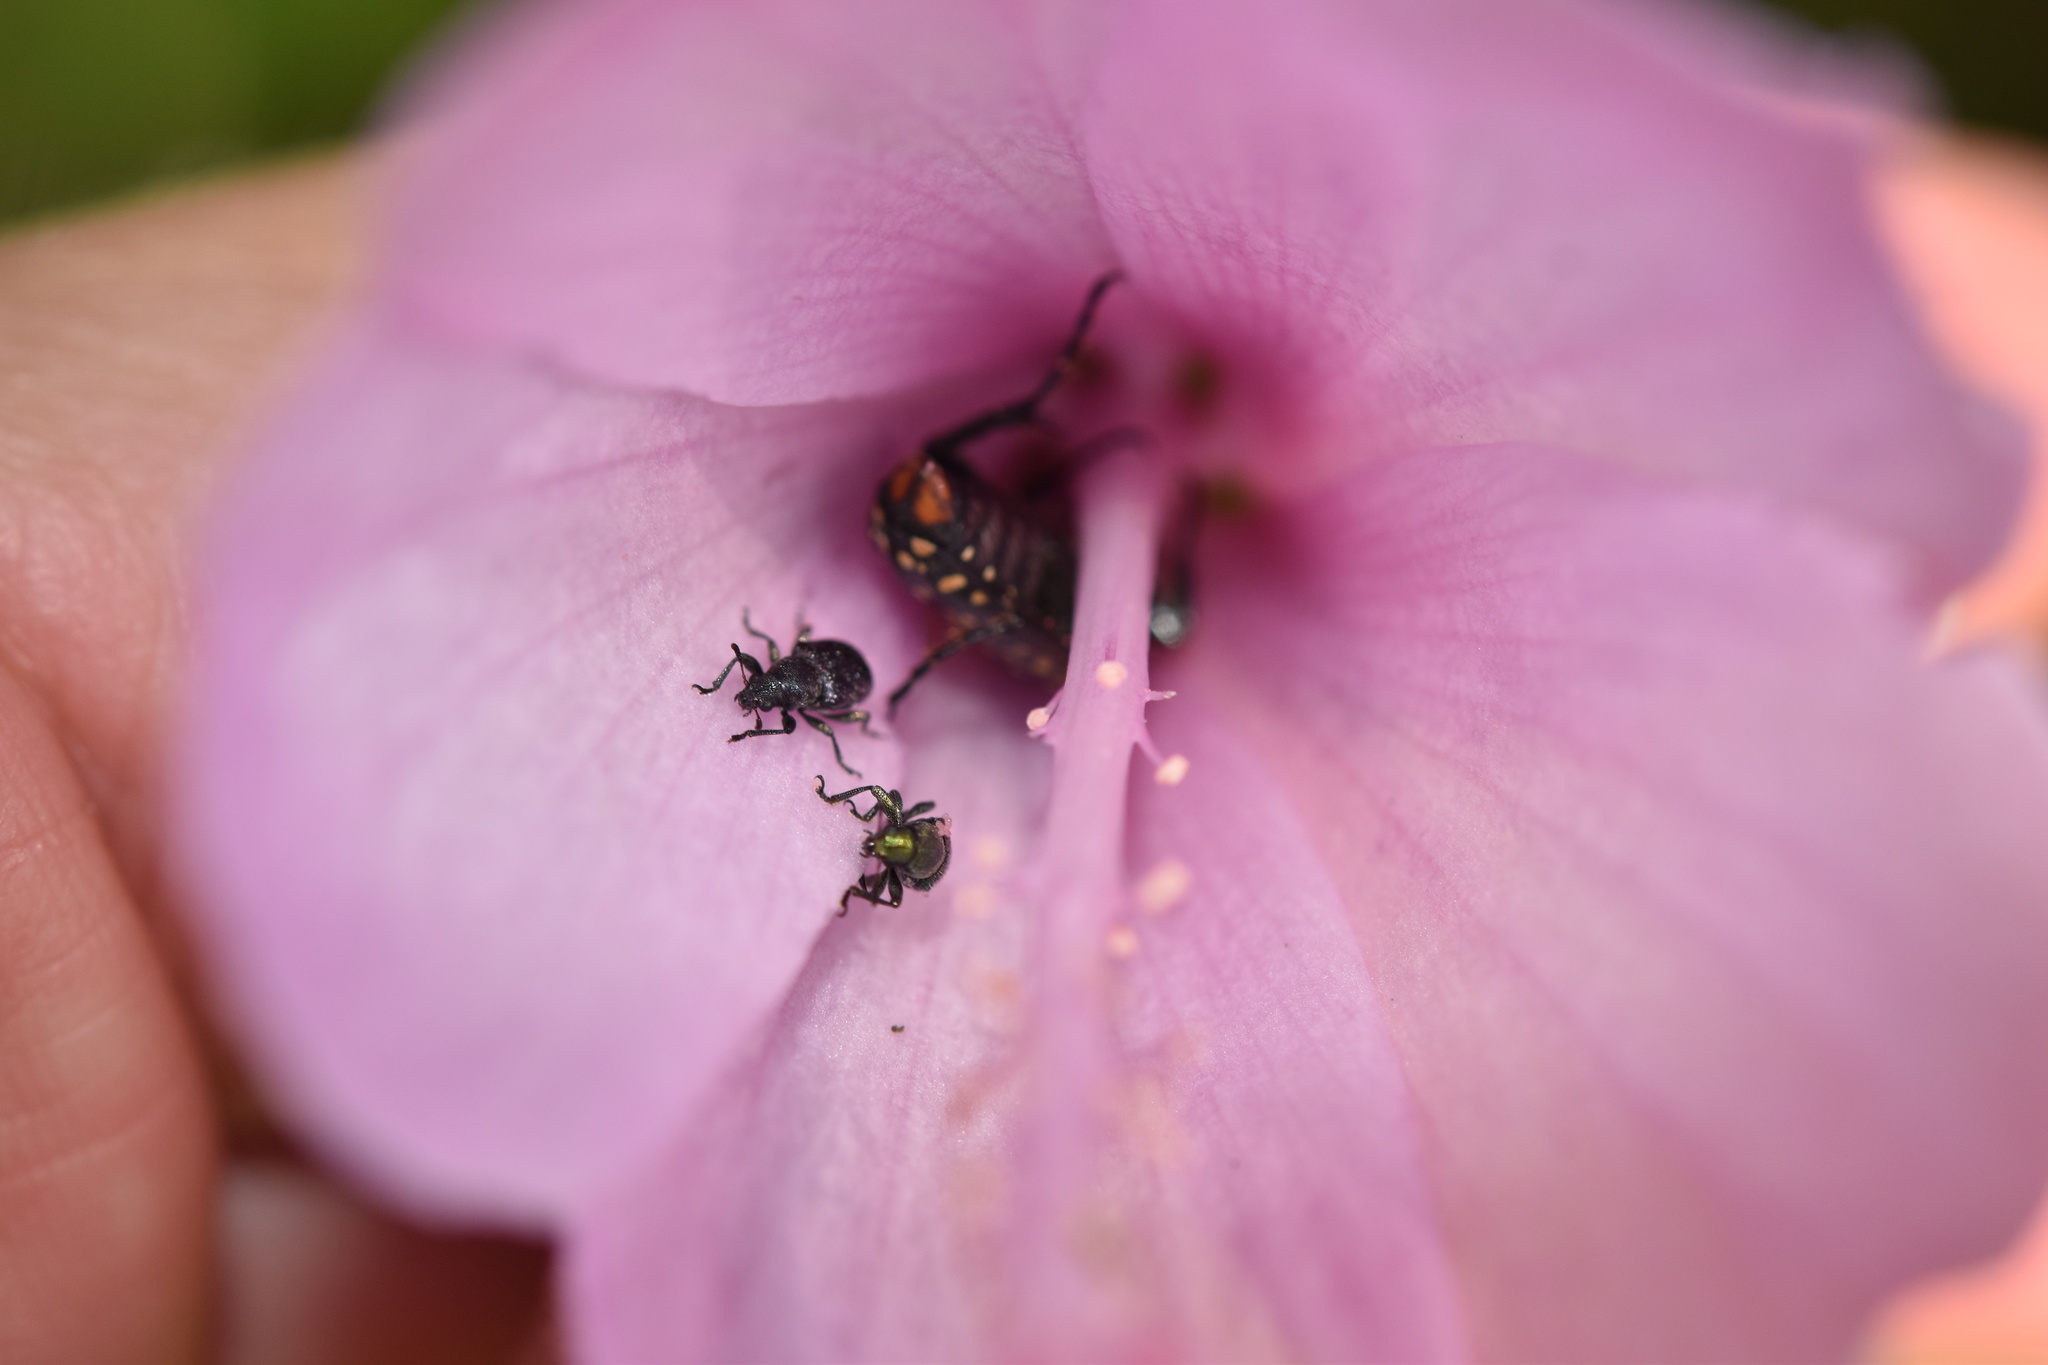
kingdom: Plantae
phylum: Tracheophyta
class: Magnoliopsida
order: Malvales
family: Malvaceae
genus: Hibiscus
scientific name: Hibiscus pedunculatus
